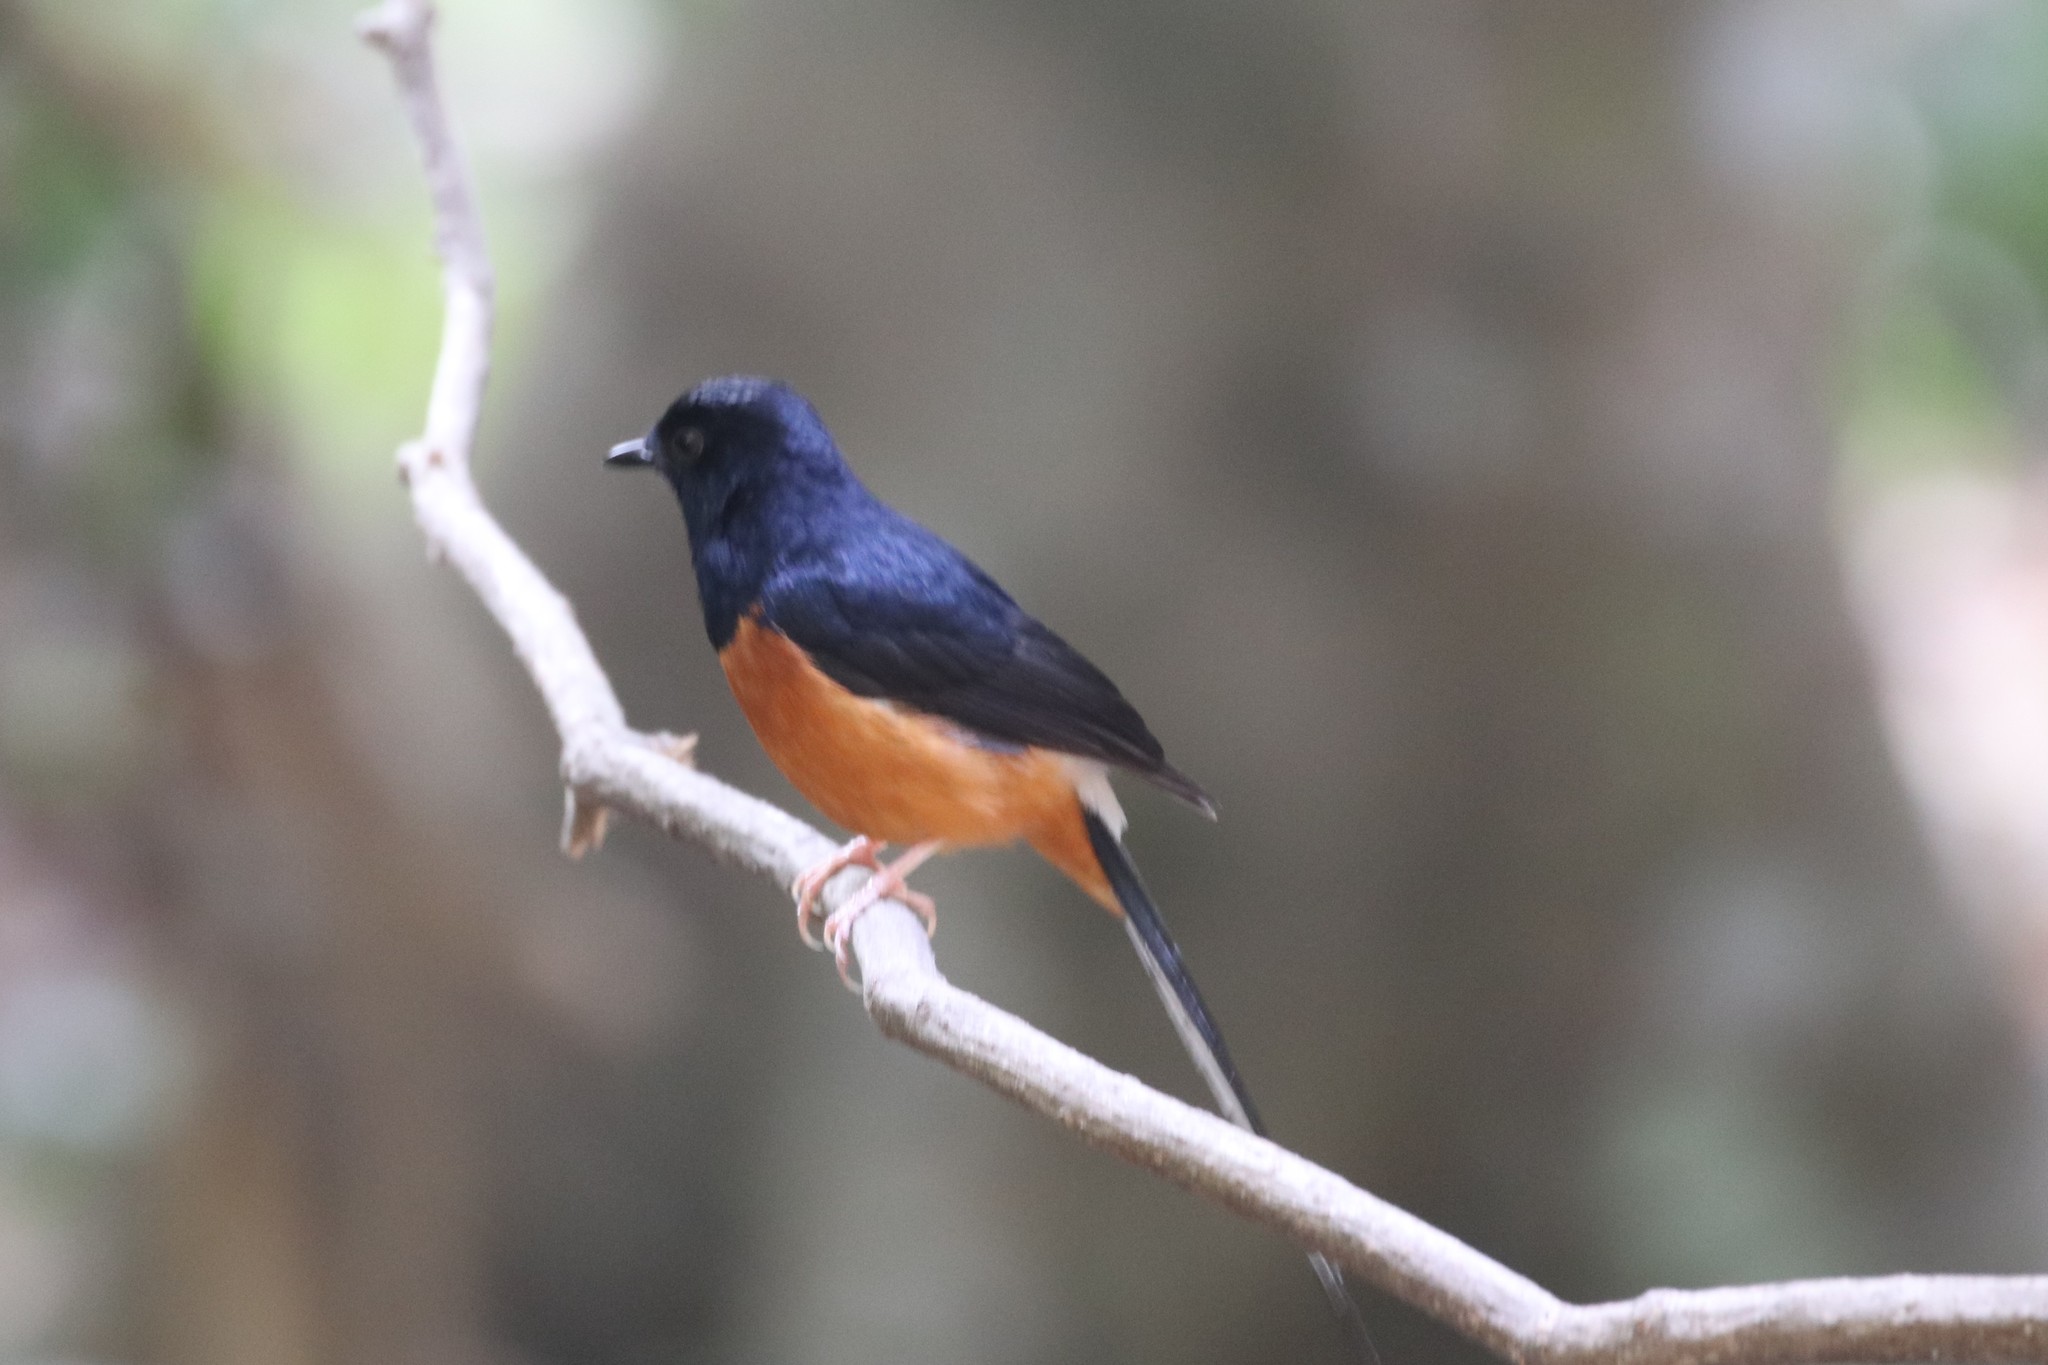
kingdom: Animalia
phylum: Chordata
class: Aves
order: Passeriformes
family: Muscicapidae
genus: Copsychus
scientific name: Copsychus malabaricus
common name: White-rumped shama
